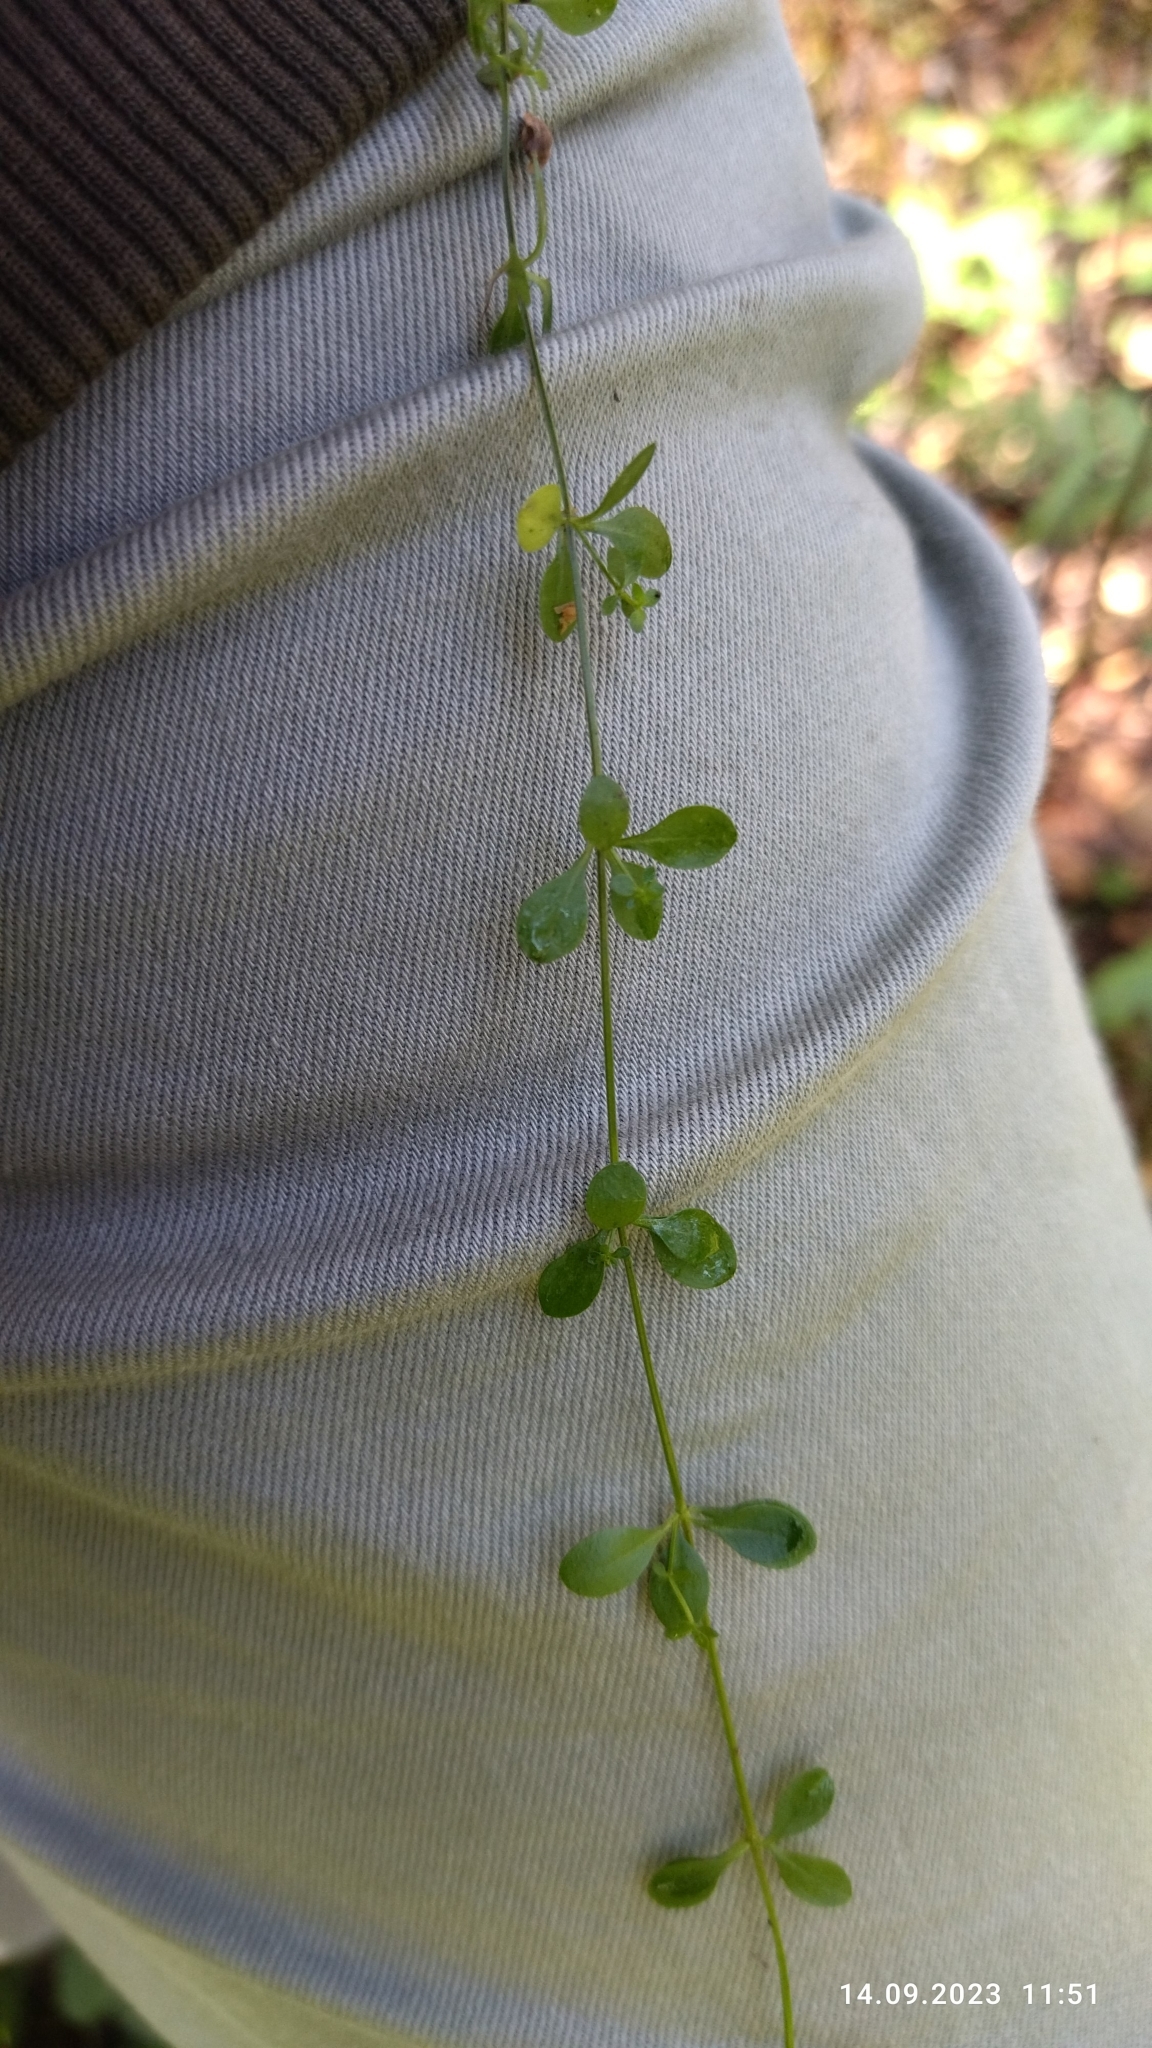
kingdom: Plantae
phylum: Tracheophyta
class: Magnoliopsida
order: Gentianales
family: Rubiaceae
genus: Galium
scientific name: Galium palustre
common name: Common marsh-bedstraw
